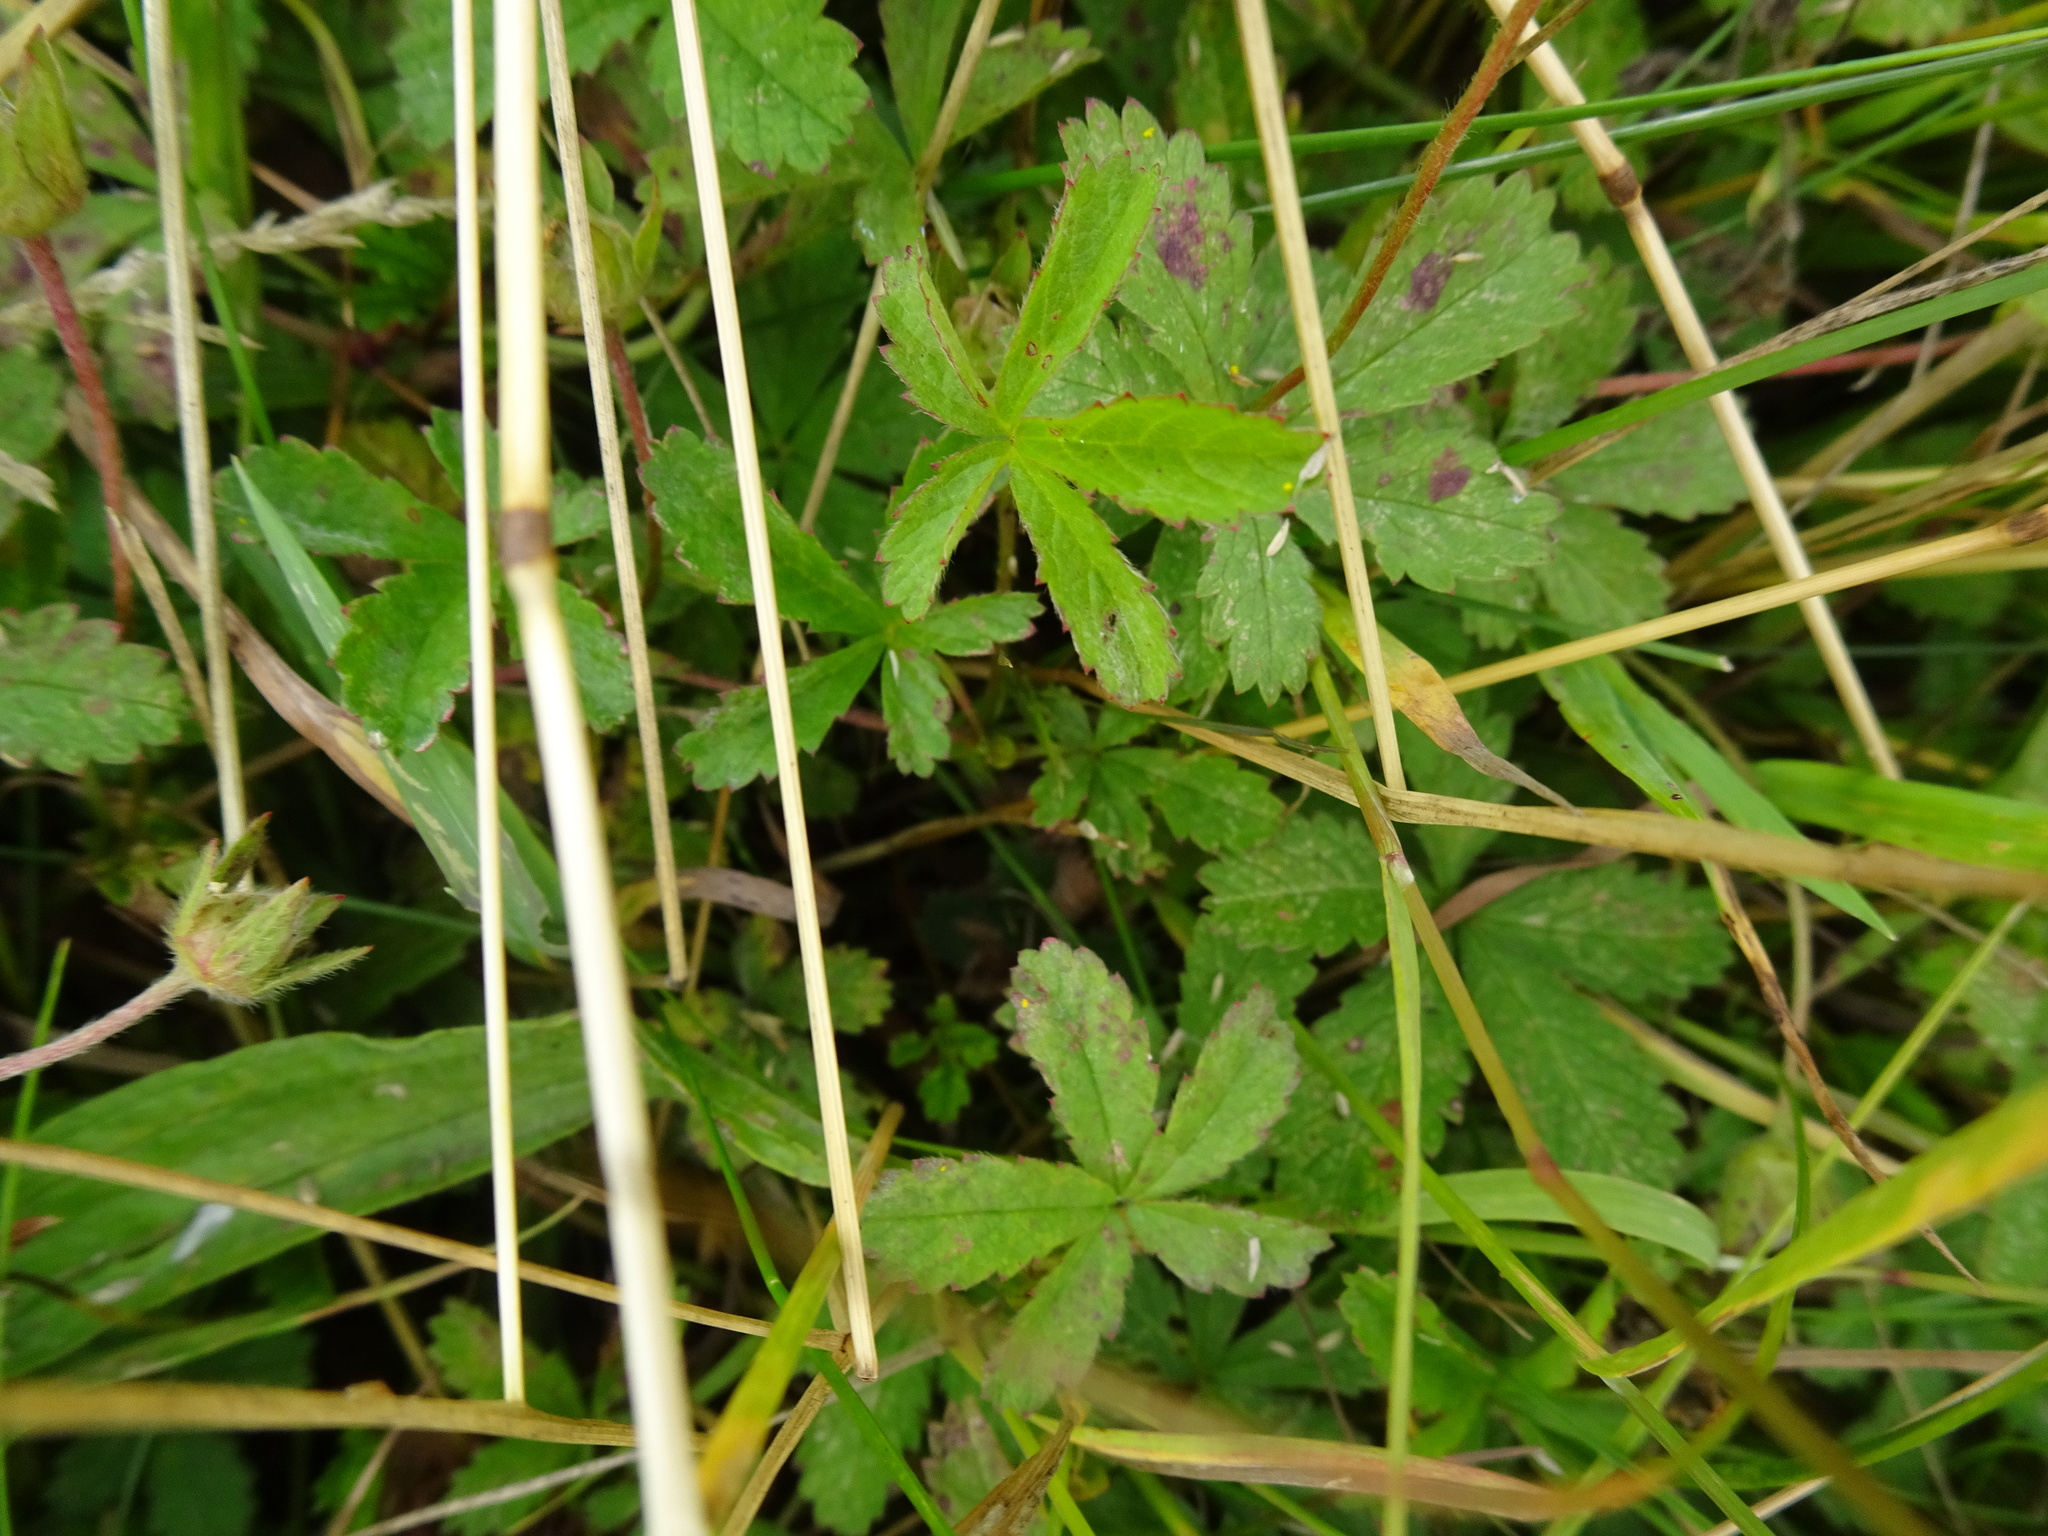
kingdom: Plantae
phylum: Tracheophyta
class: Magnoliopsida
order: Rosales
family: Rosaceae
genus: Potentilla
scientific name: Potentilla reptans
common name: Creeping cinquefoil
